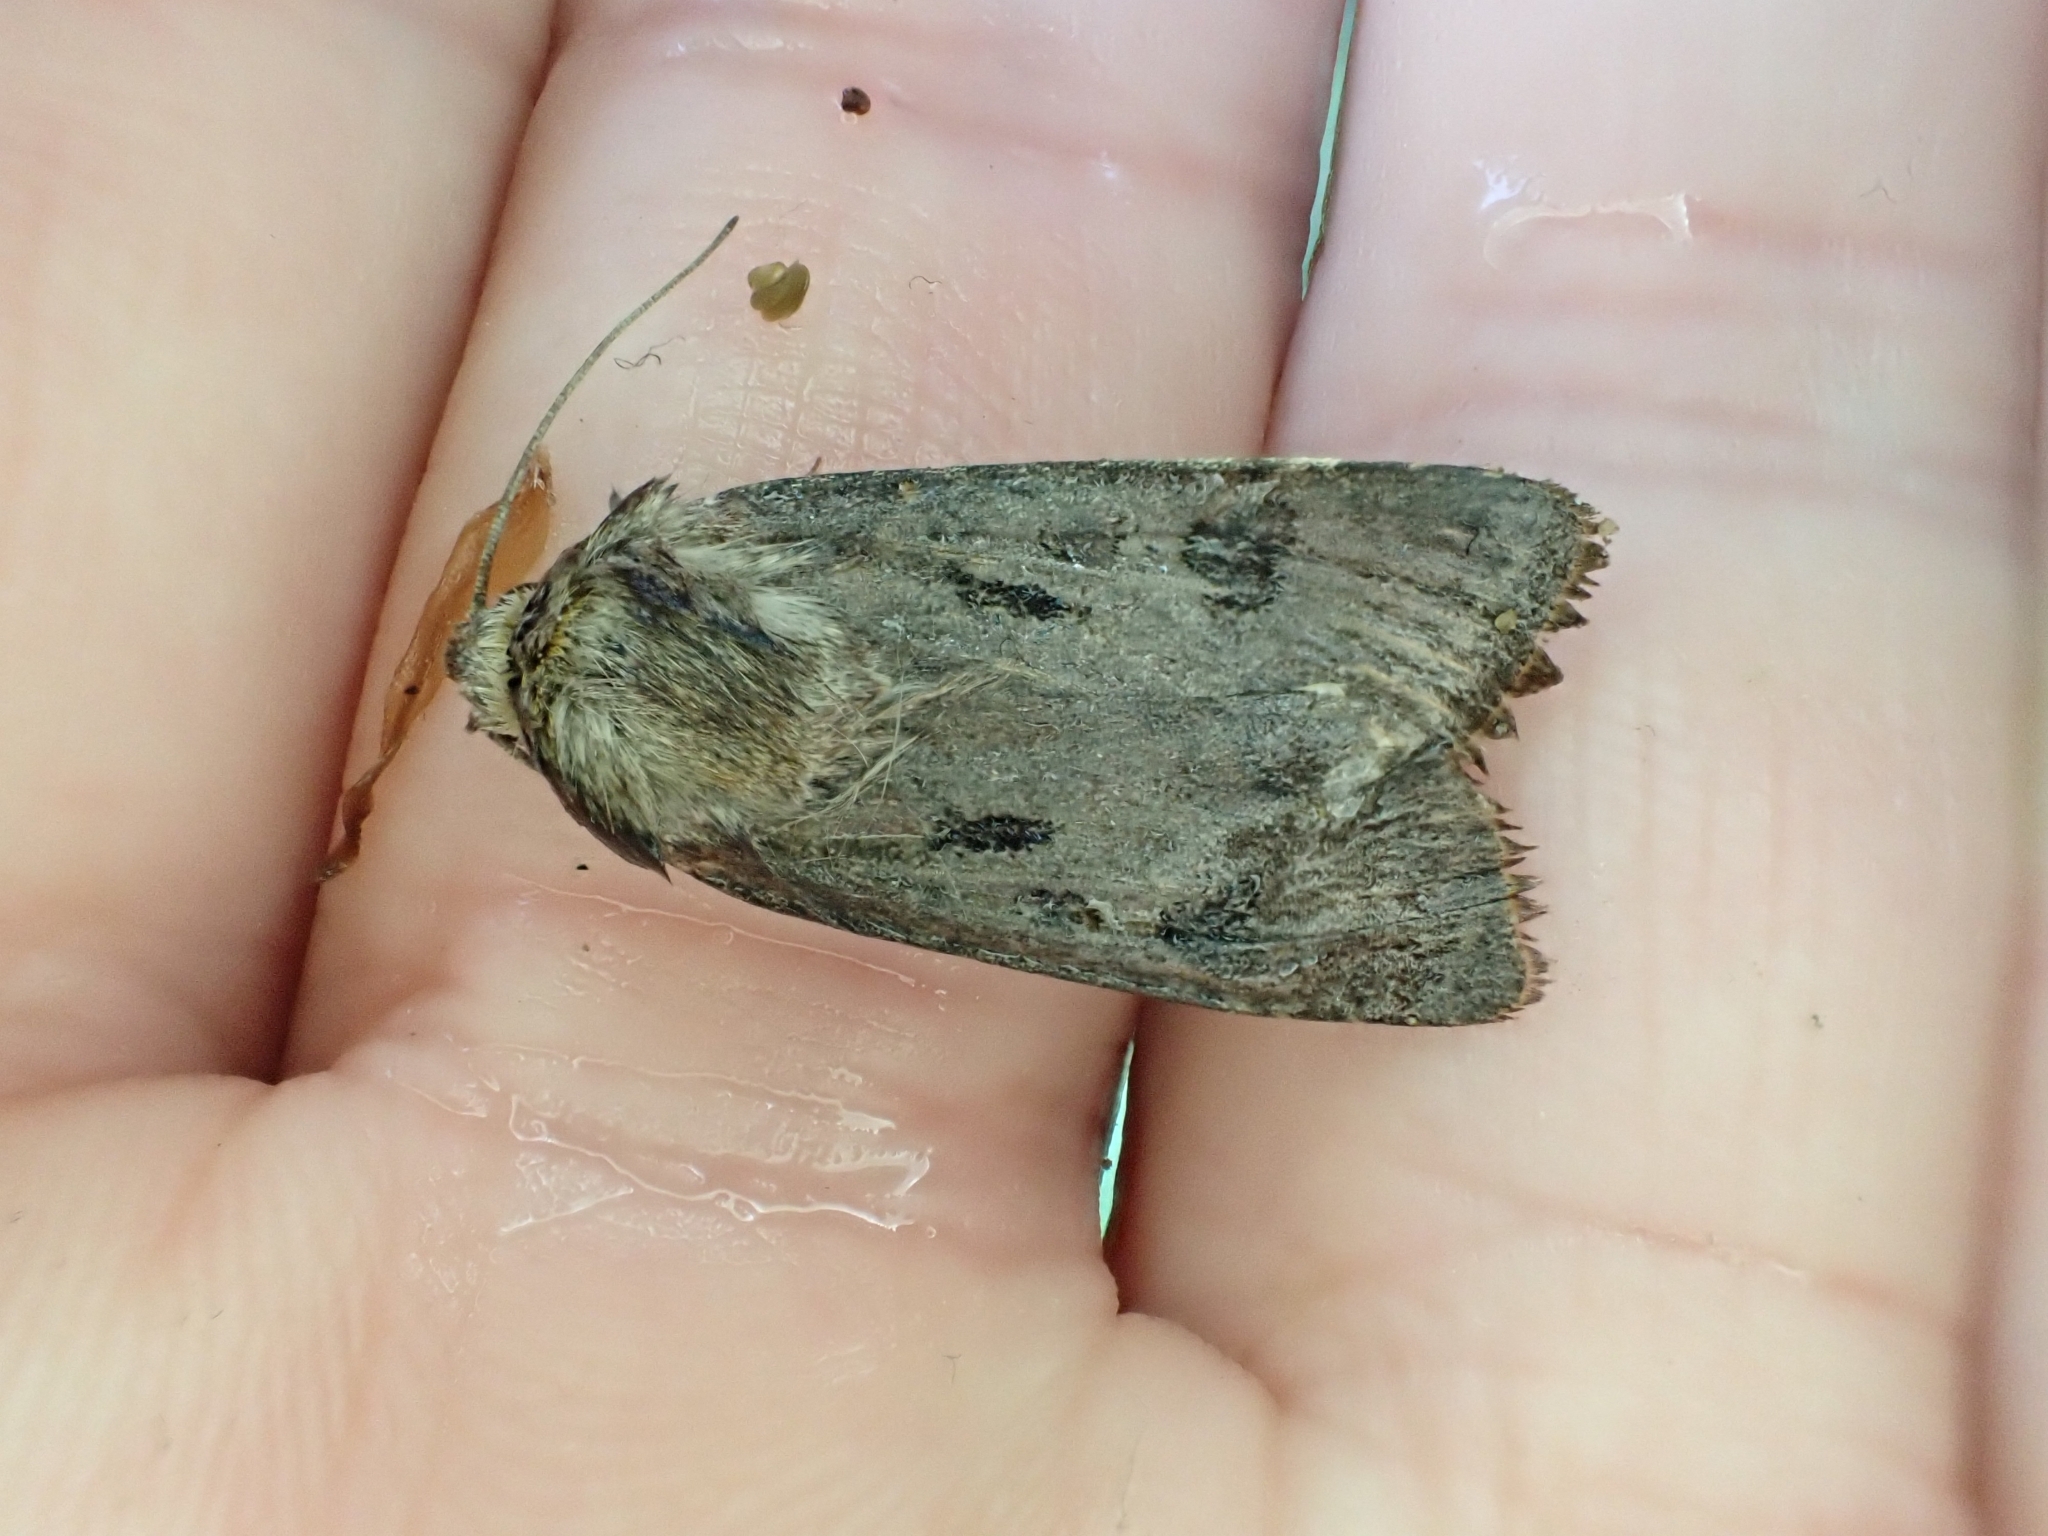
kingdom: Animalia
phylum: Arthropoda
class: Insecta
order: Lepidoptera
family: Noctuidae
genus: Agrotis
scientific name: Agrotis exclamationis
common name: Heart and dart
